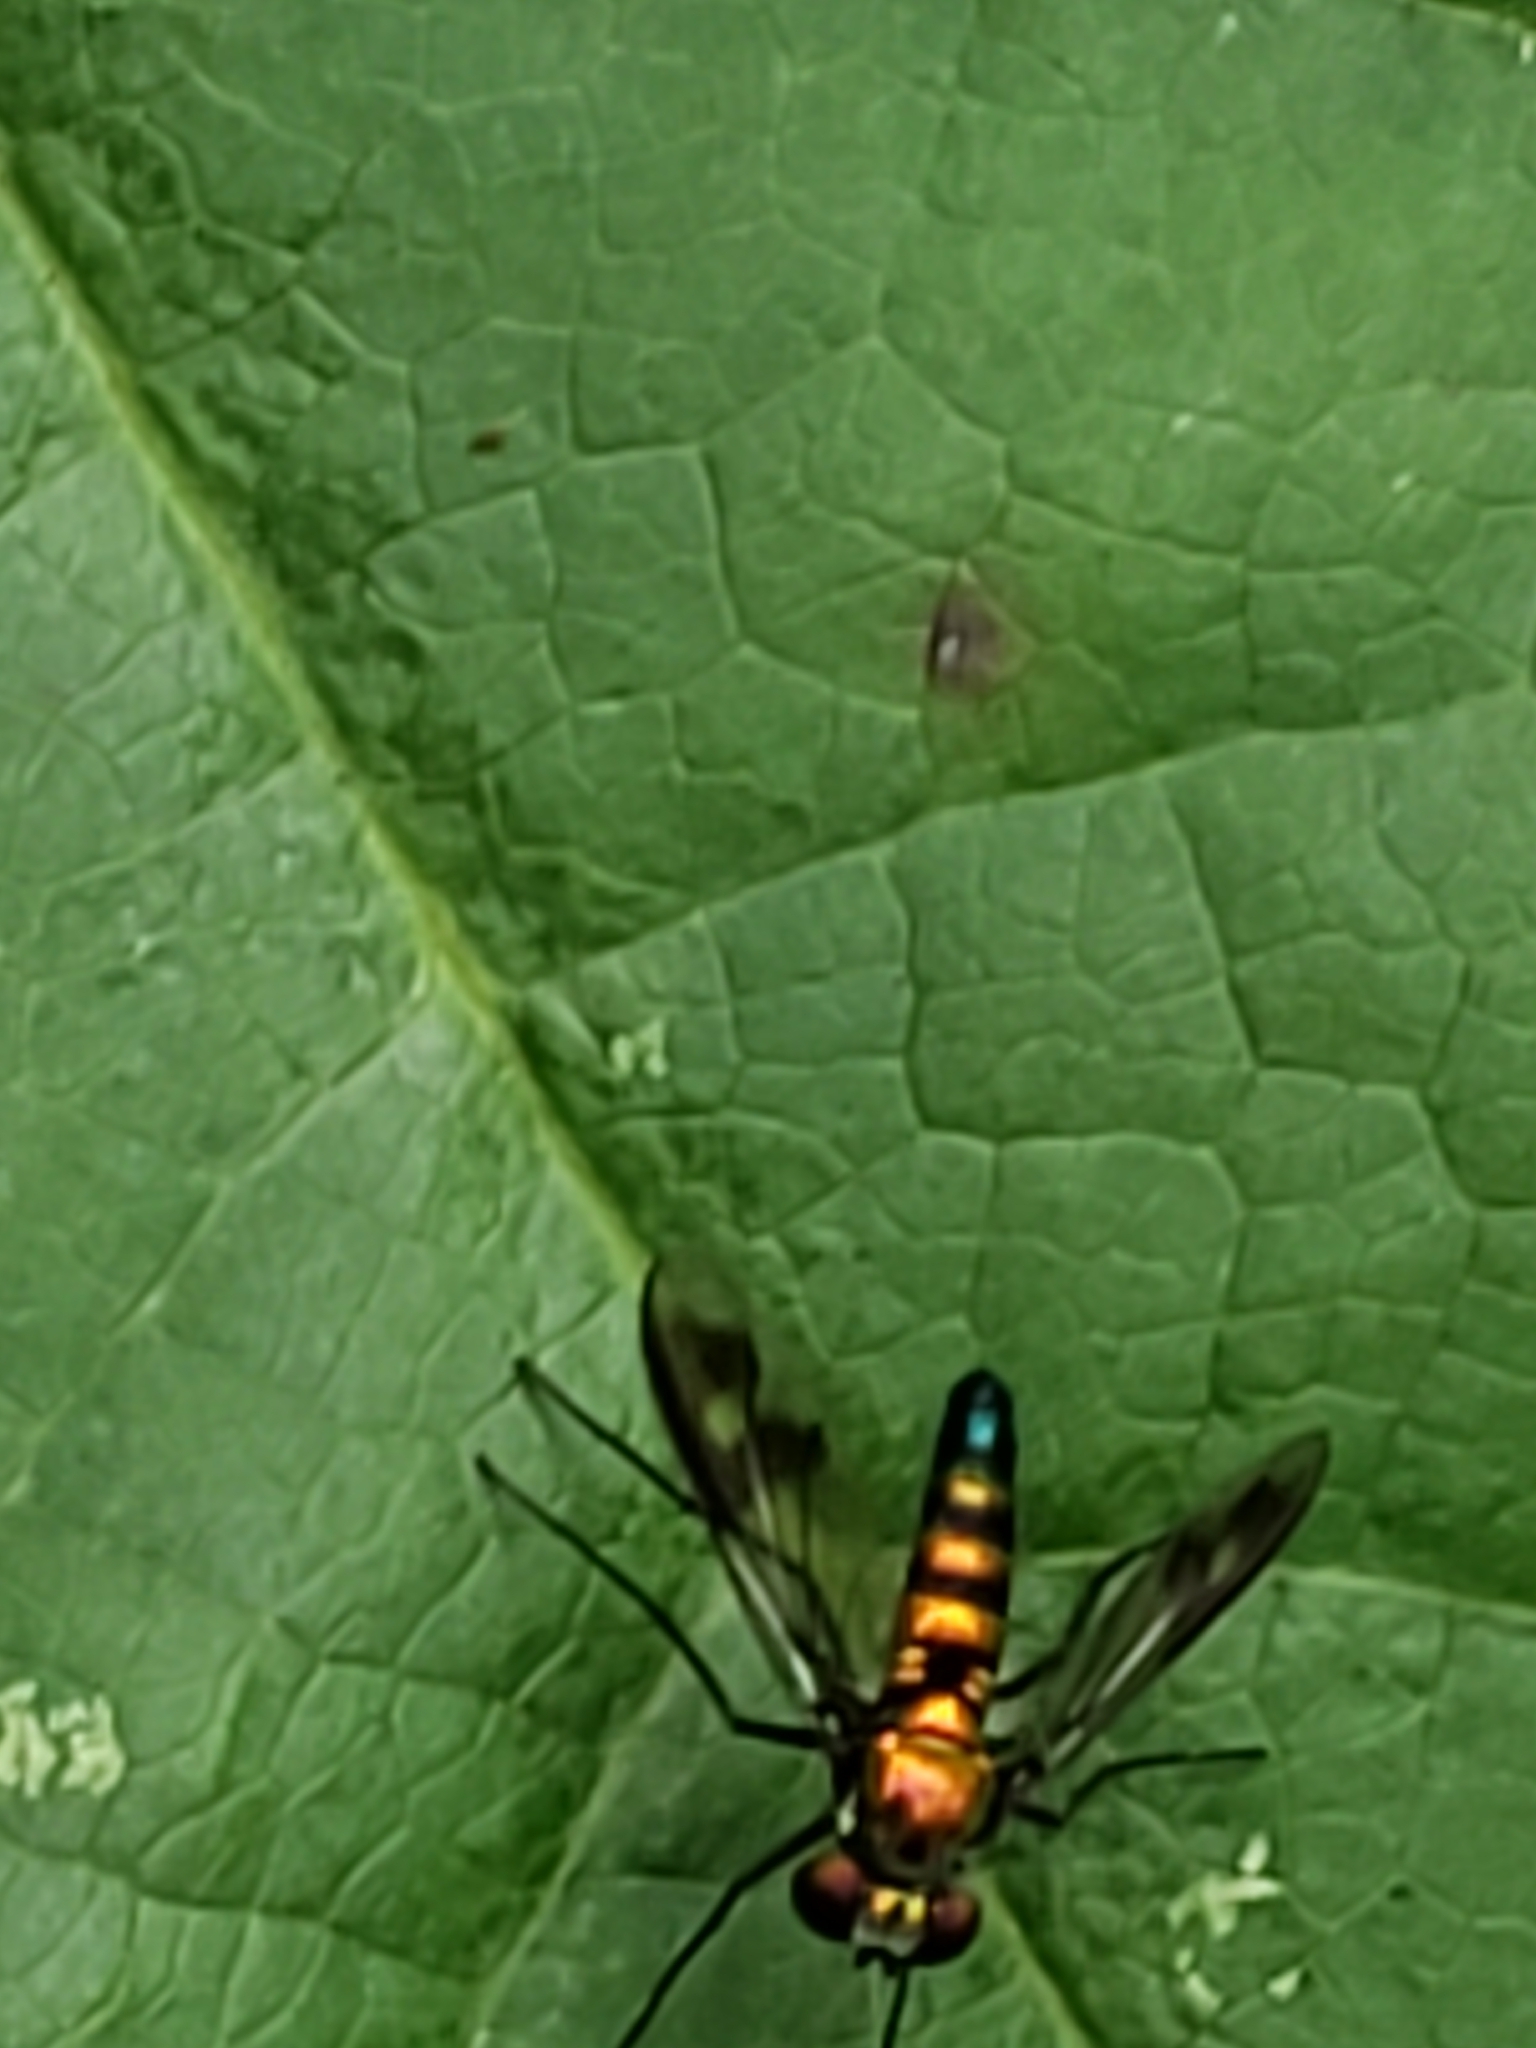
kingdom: Animalia
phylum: Arthropoda
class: Insecta
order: Diptera
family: Dolichopodidae
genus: Condylostylus
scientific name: Condylostylus patibulatus
